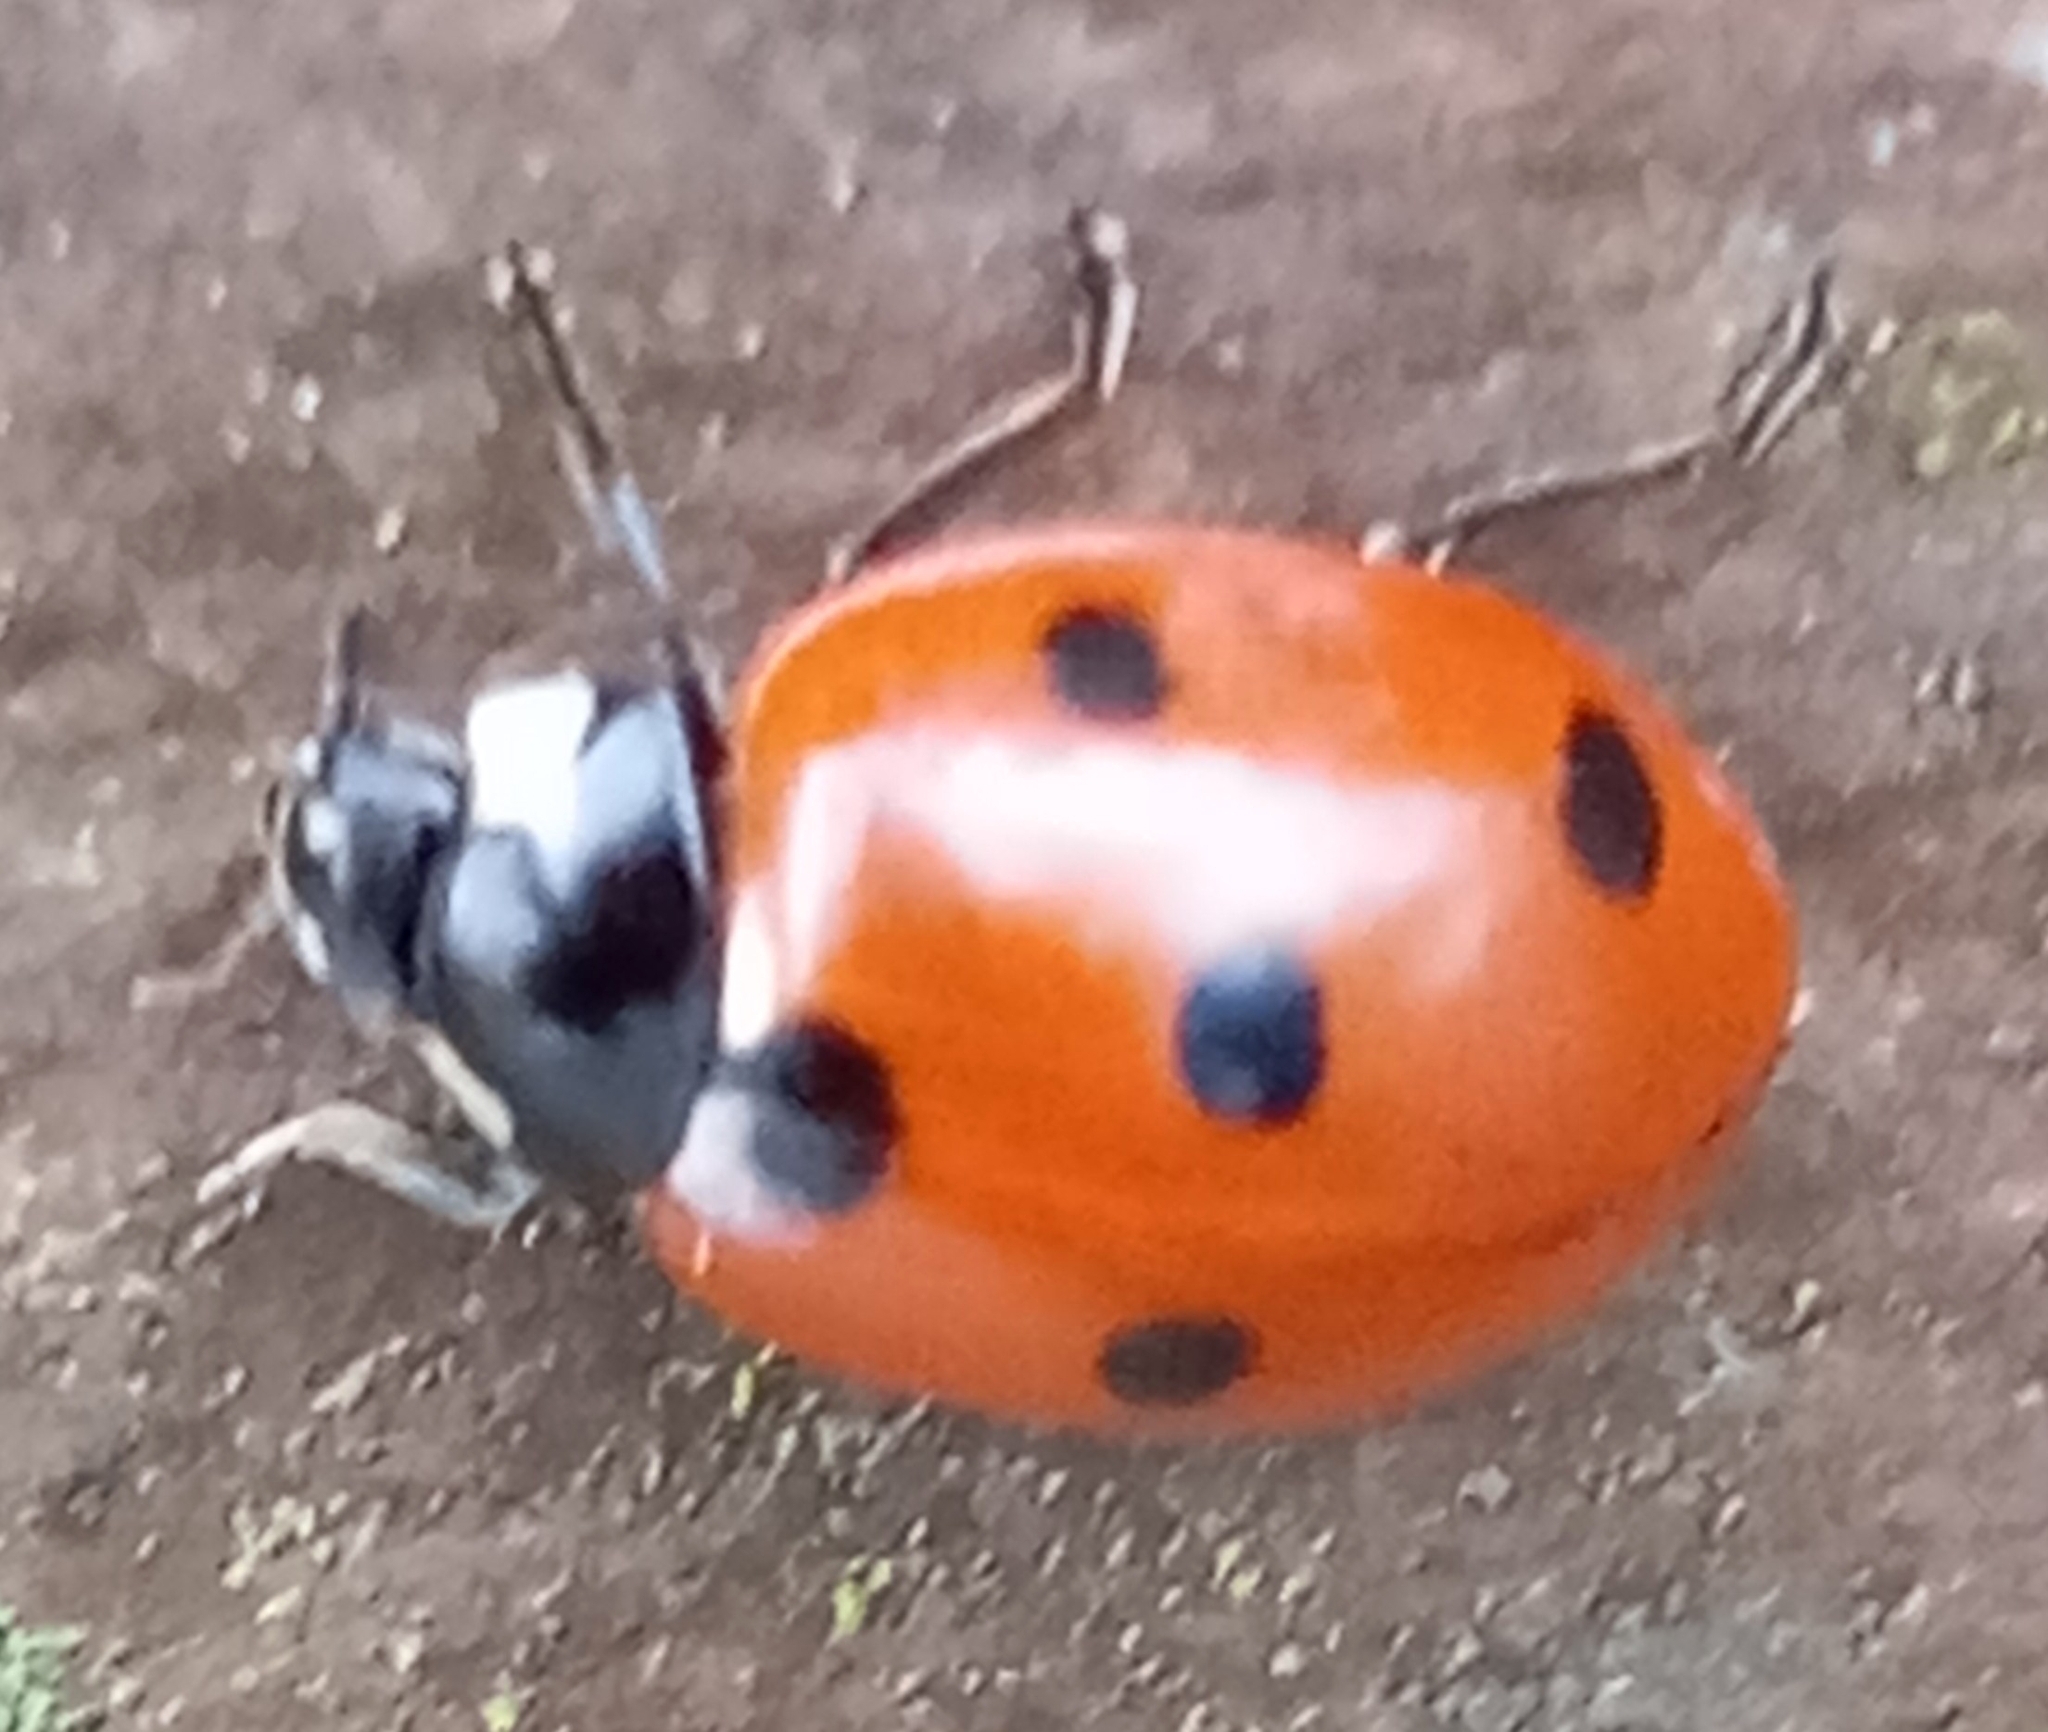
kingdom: Animalia
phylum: Arthropoda
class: Insecta
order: Coleoptera
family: Coccinellidae
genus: Coccinella
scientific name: Coccinella septempunctata
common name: Sevenspotted lady beetle
